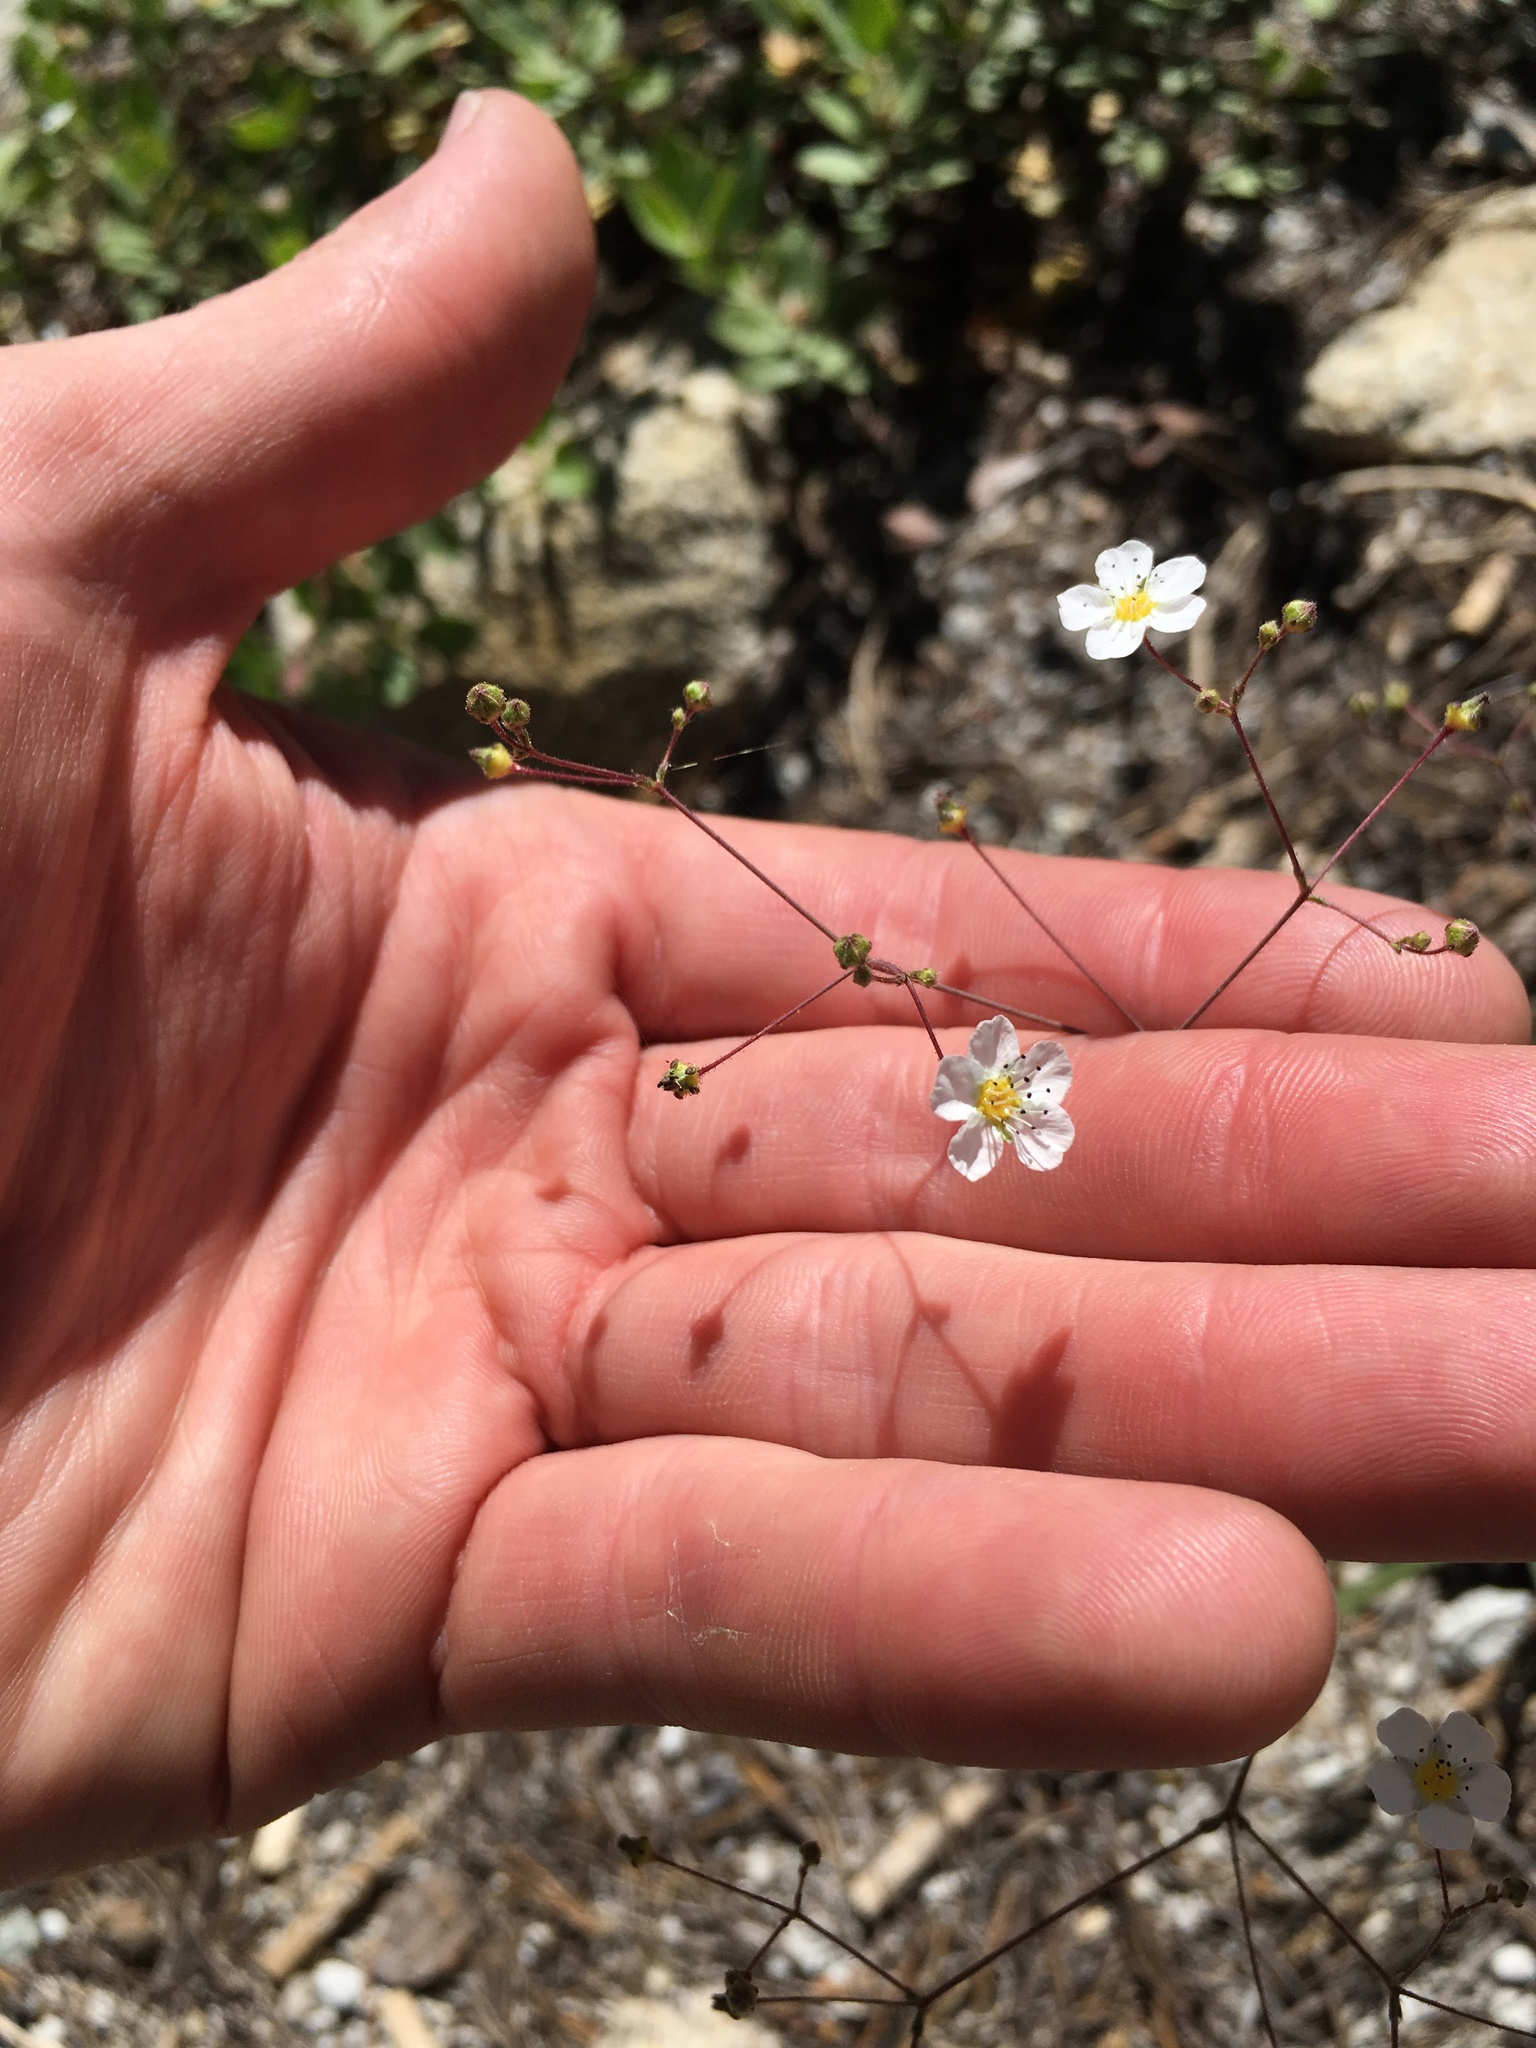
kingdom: Plantae
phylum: Tracheophyta
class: Magnoliopsida
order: Rosales
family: Rosaceae
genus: Potentilla
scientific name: Potentilla santolinoides
